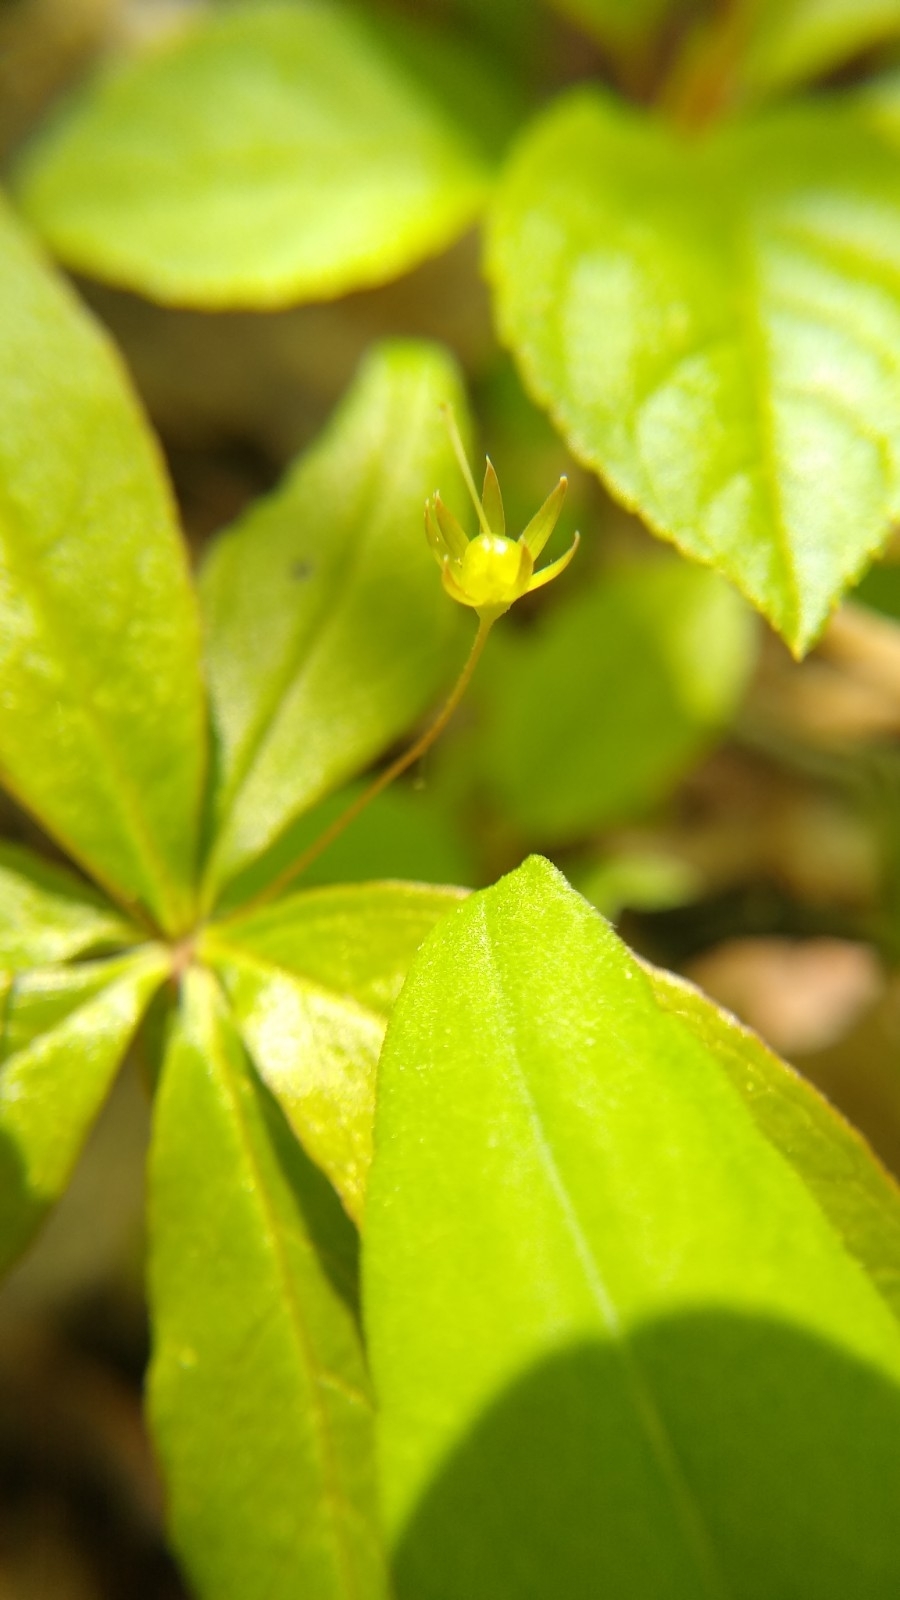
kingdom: Plantae
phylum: Tracheophyta
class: Magnoliopsida
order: Ericales
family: Primulaceae
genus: Lysimachia
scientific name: Lysimachia borealis
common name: American starflower
